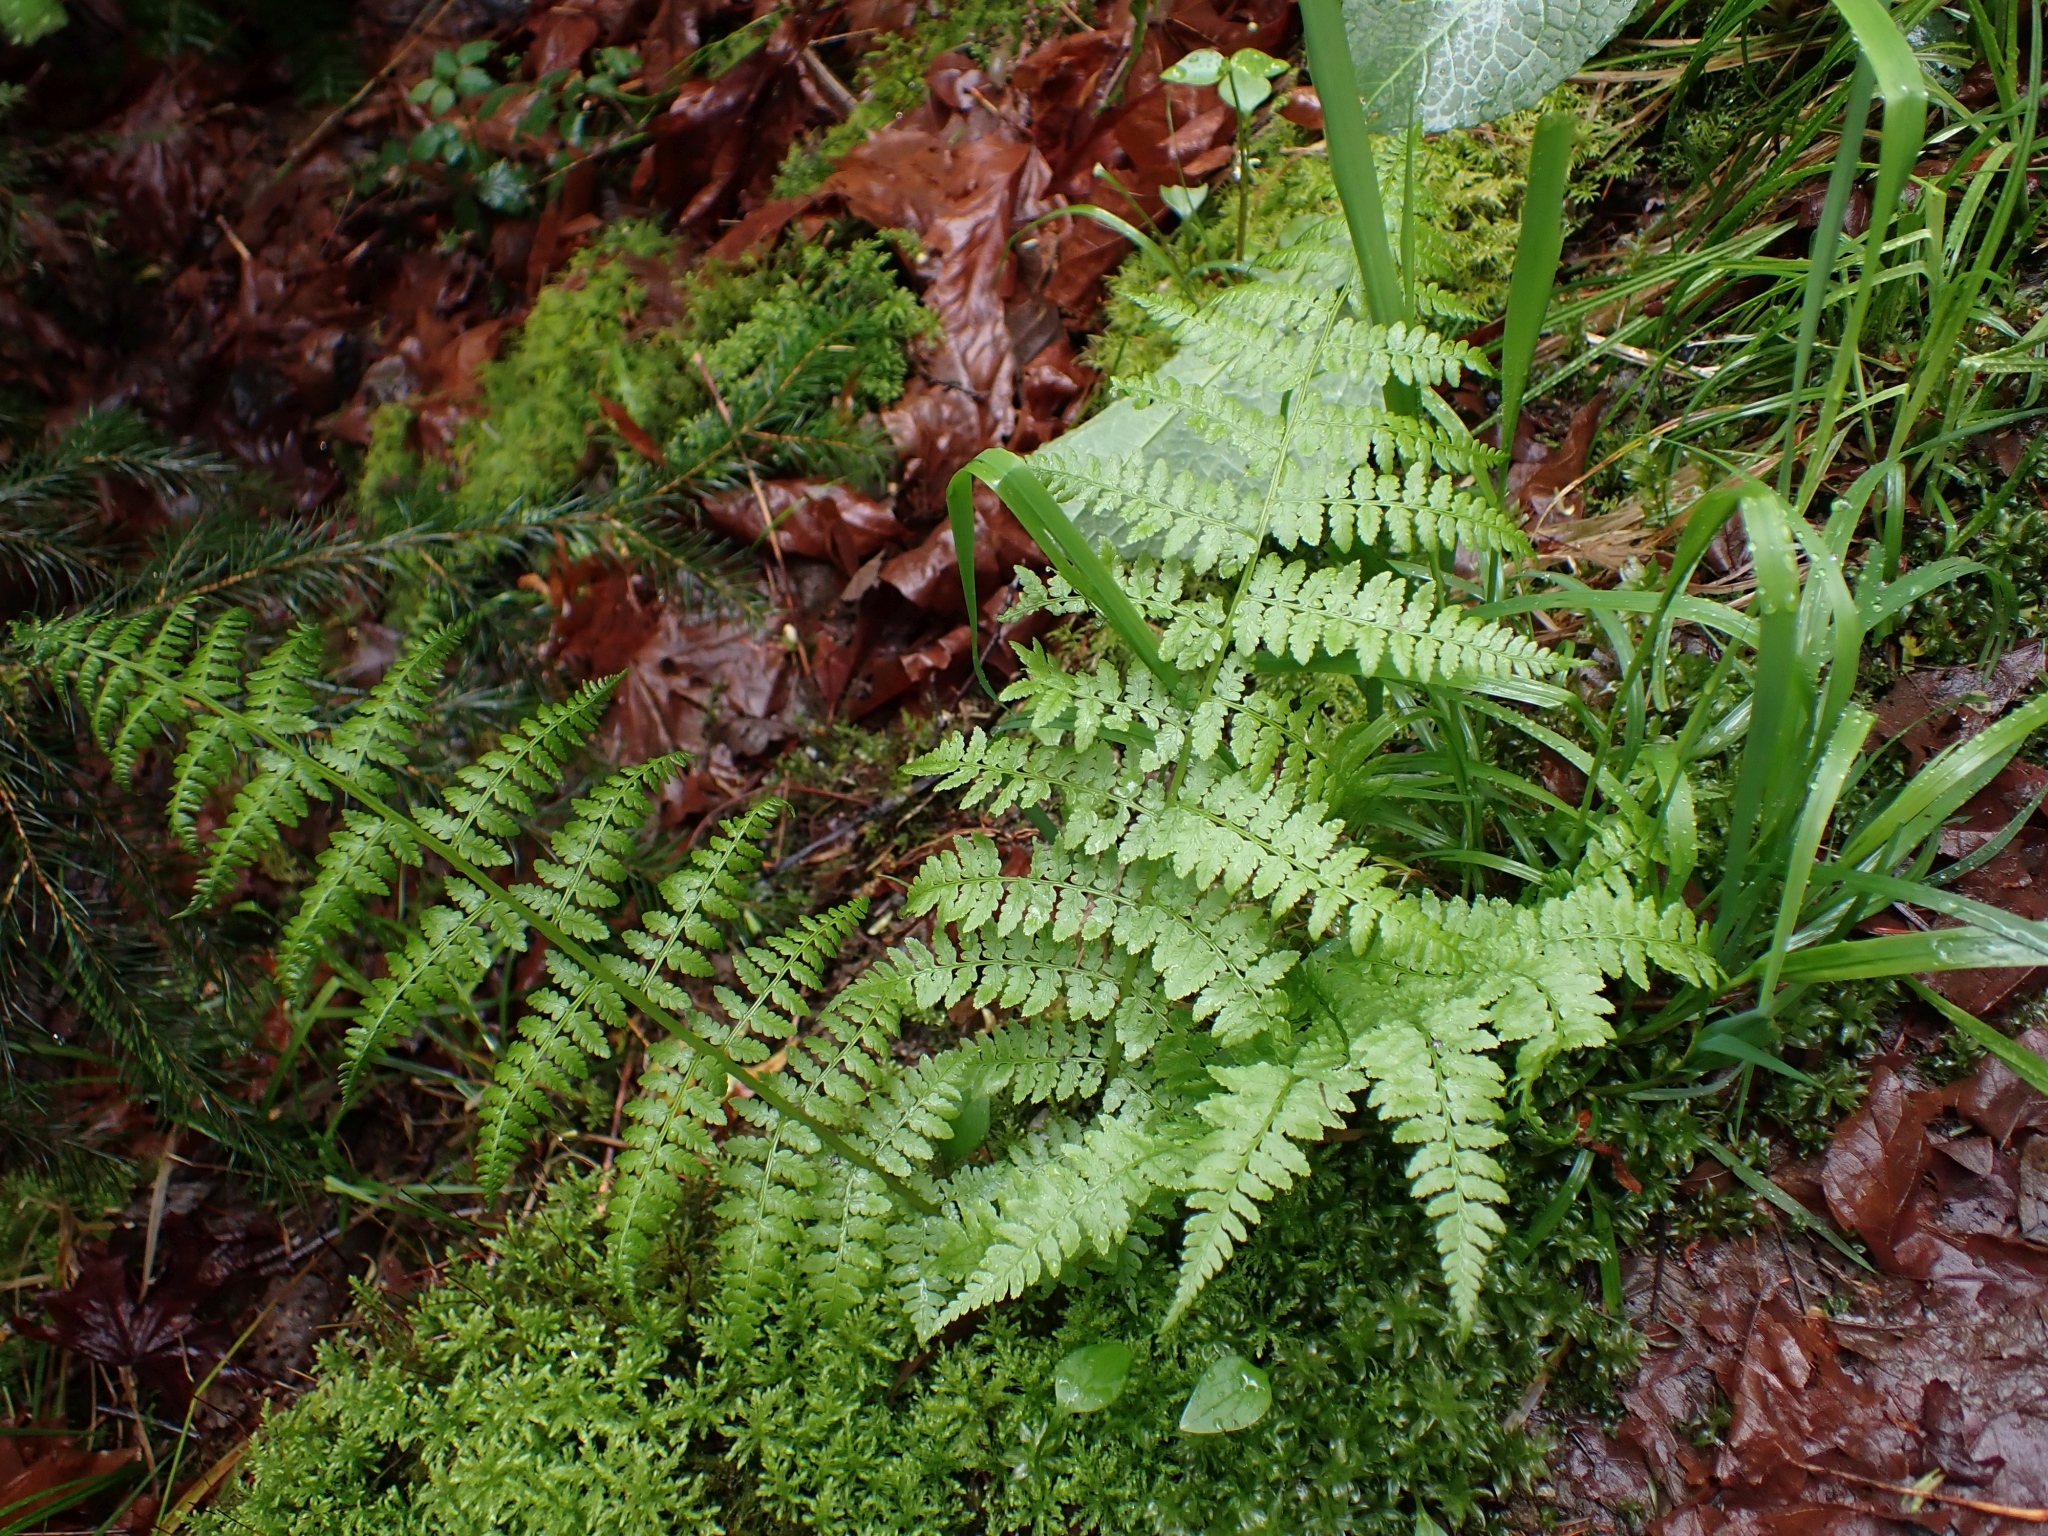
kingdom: Plantae
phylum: Tracheophyta
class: Polypodiopsida
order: Polypodiales
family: Athyriaceae
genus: Athyrium
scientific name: Athyrium filix-femina
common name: Lady fern
